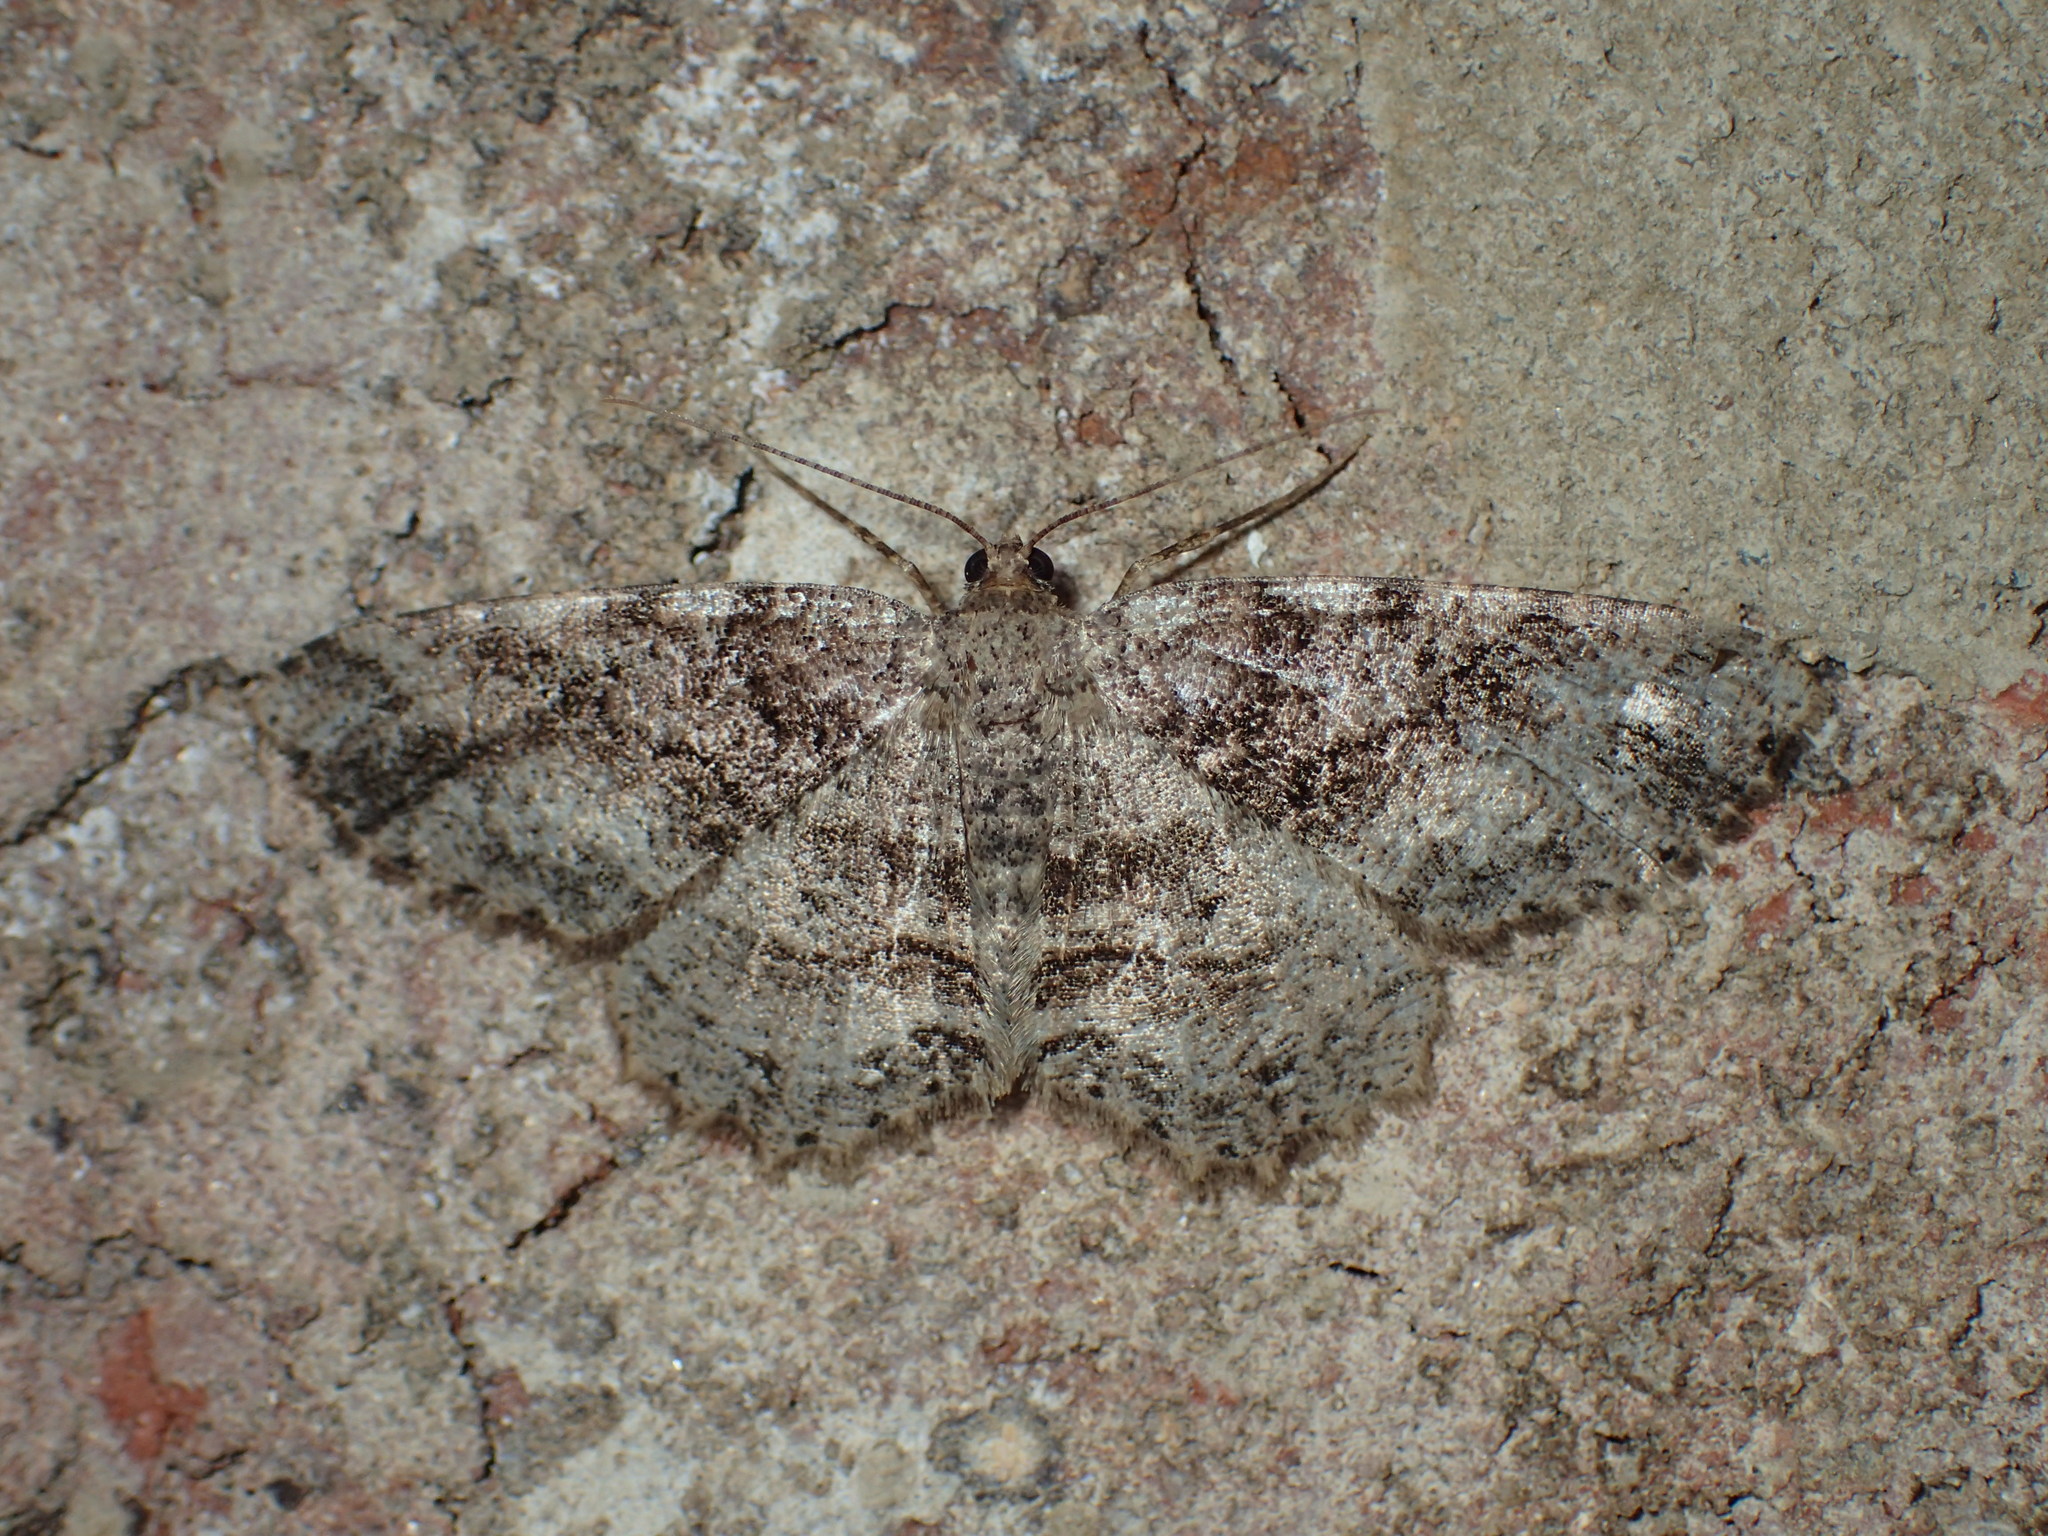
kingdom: Animalia
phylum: Arthropoda
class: Insecta
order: Lepidoptera
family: Geometridae
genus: Melanolophia
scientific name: Melanolophia canadaria
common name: Canadian melanolophia
